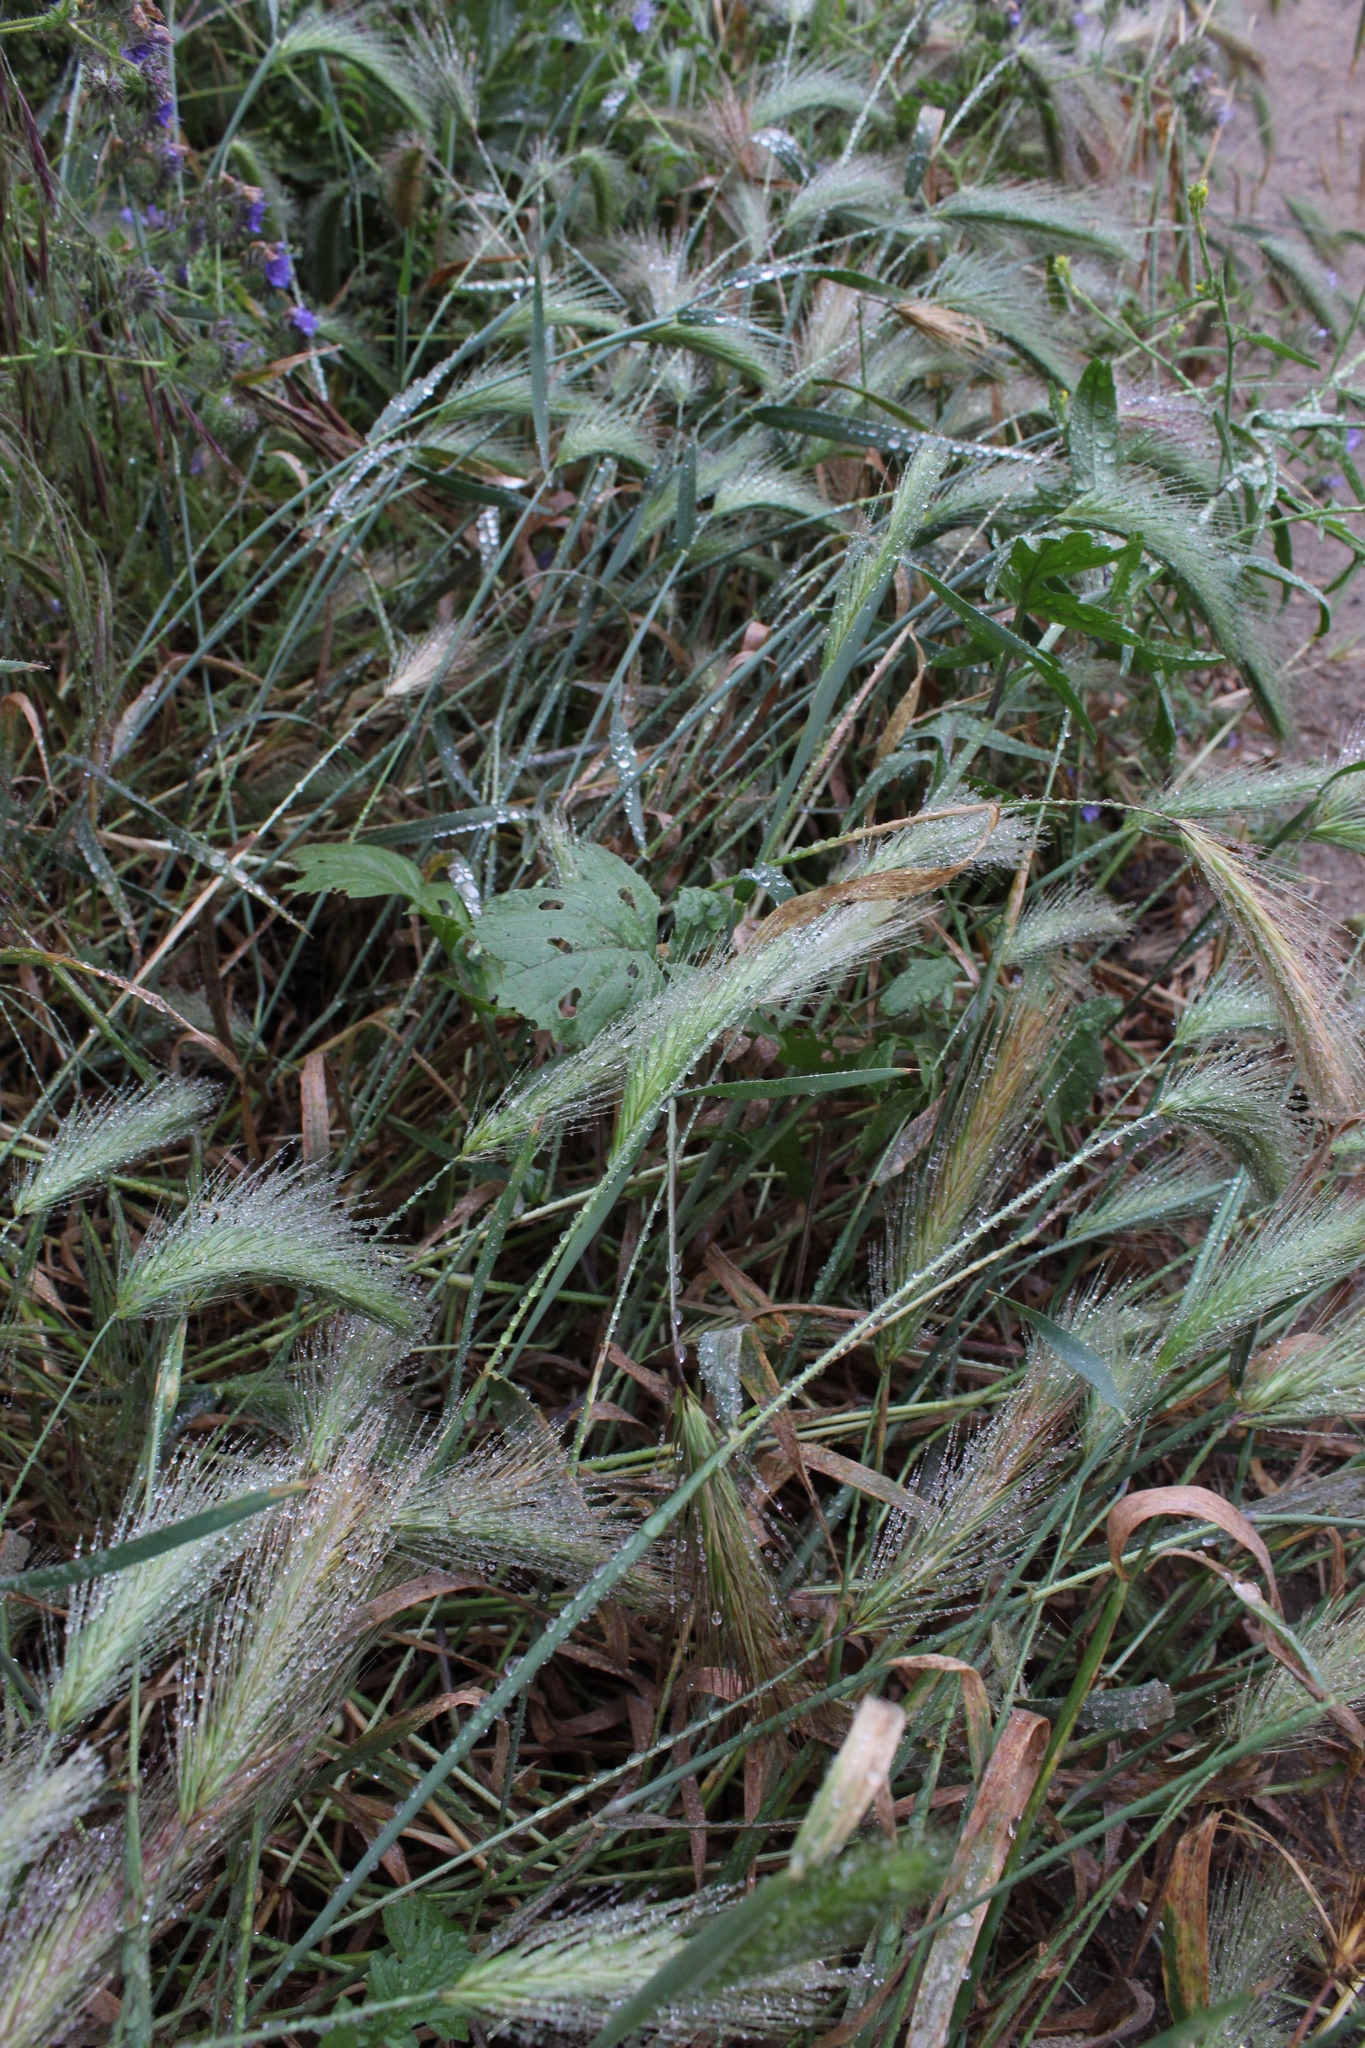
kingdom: Plantae
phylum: Tracheophyta
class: Liliopsida
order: Poales
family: Poaceae
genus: Hordeum
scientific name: Hordeum murinum
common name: Wall barley
